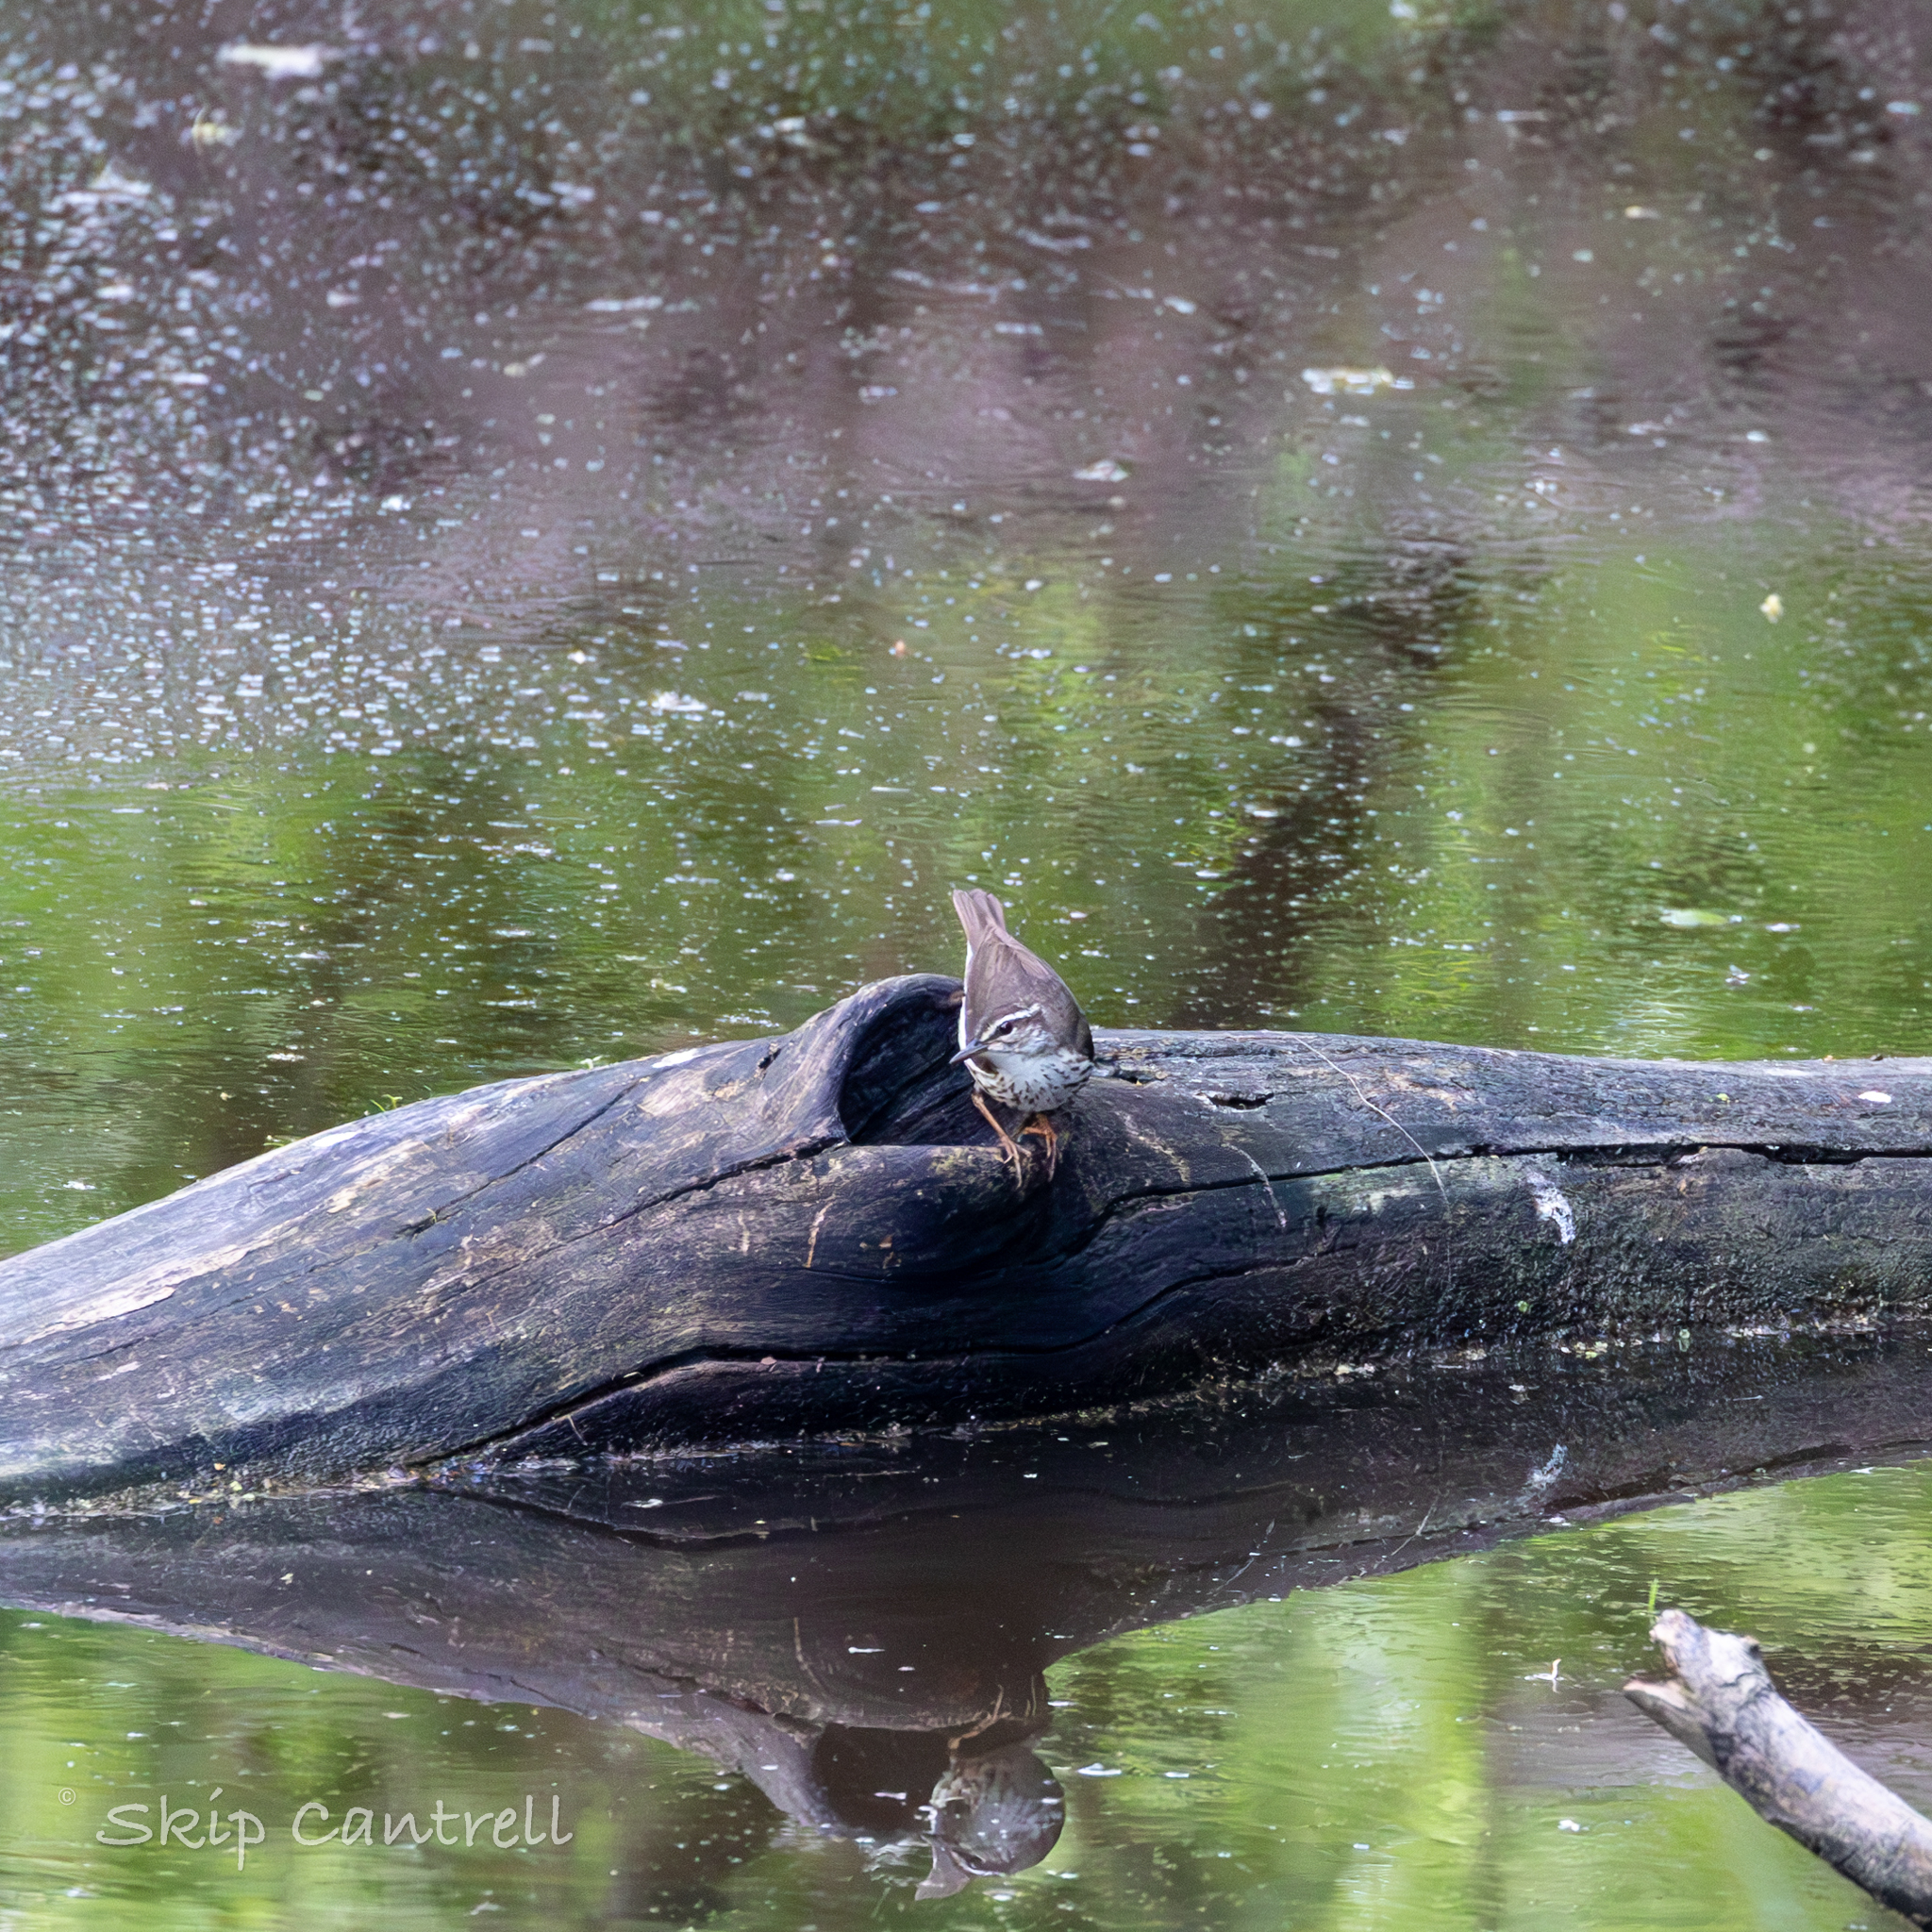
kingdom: Animalia
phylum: Chordata
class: Aves
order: Passeriformes
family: Parulidae
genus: Parkesia
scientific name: Parkesia motacilla
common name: Louisiana waterthrush
